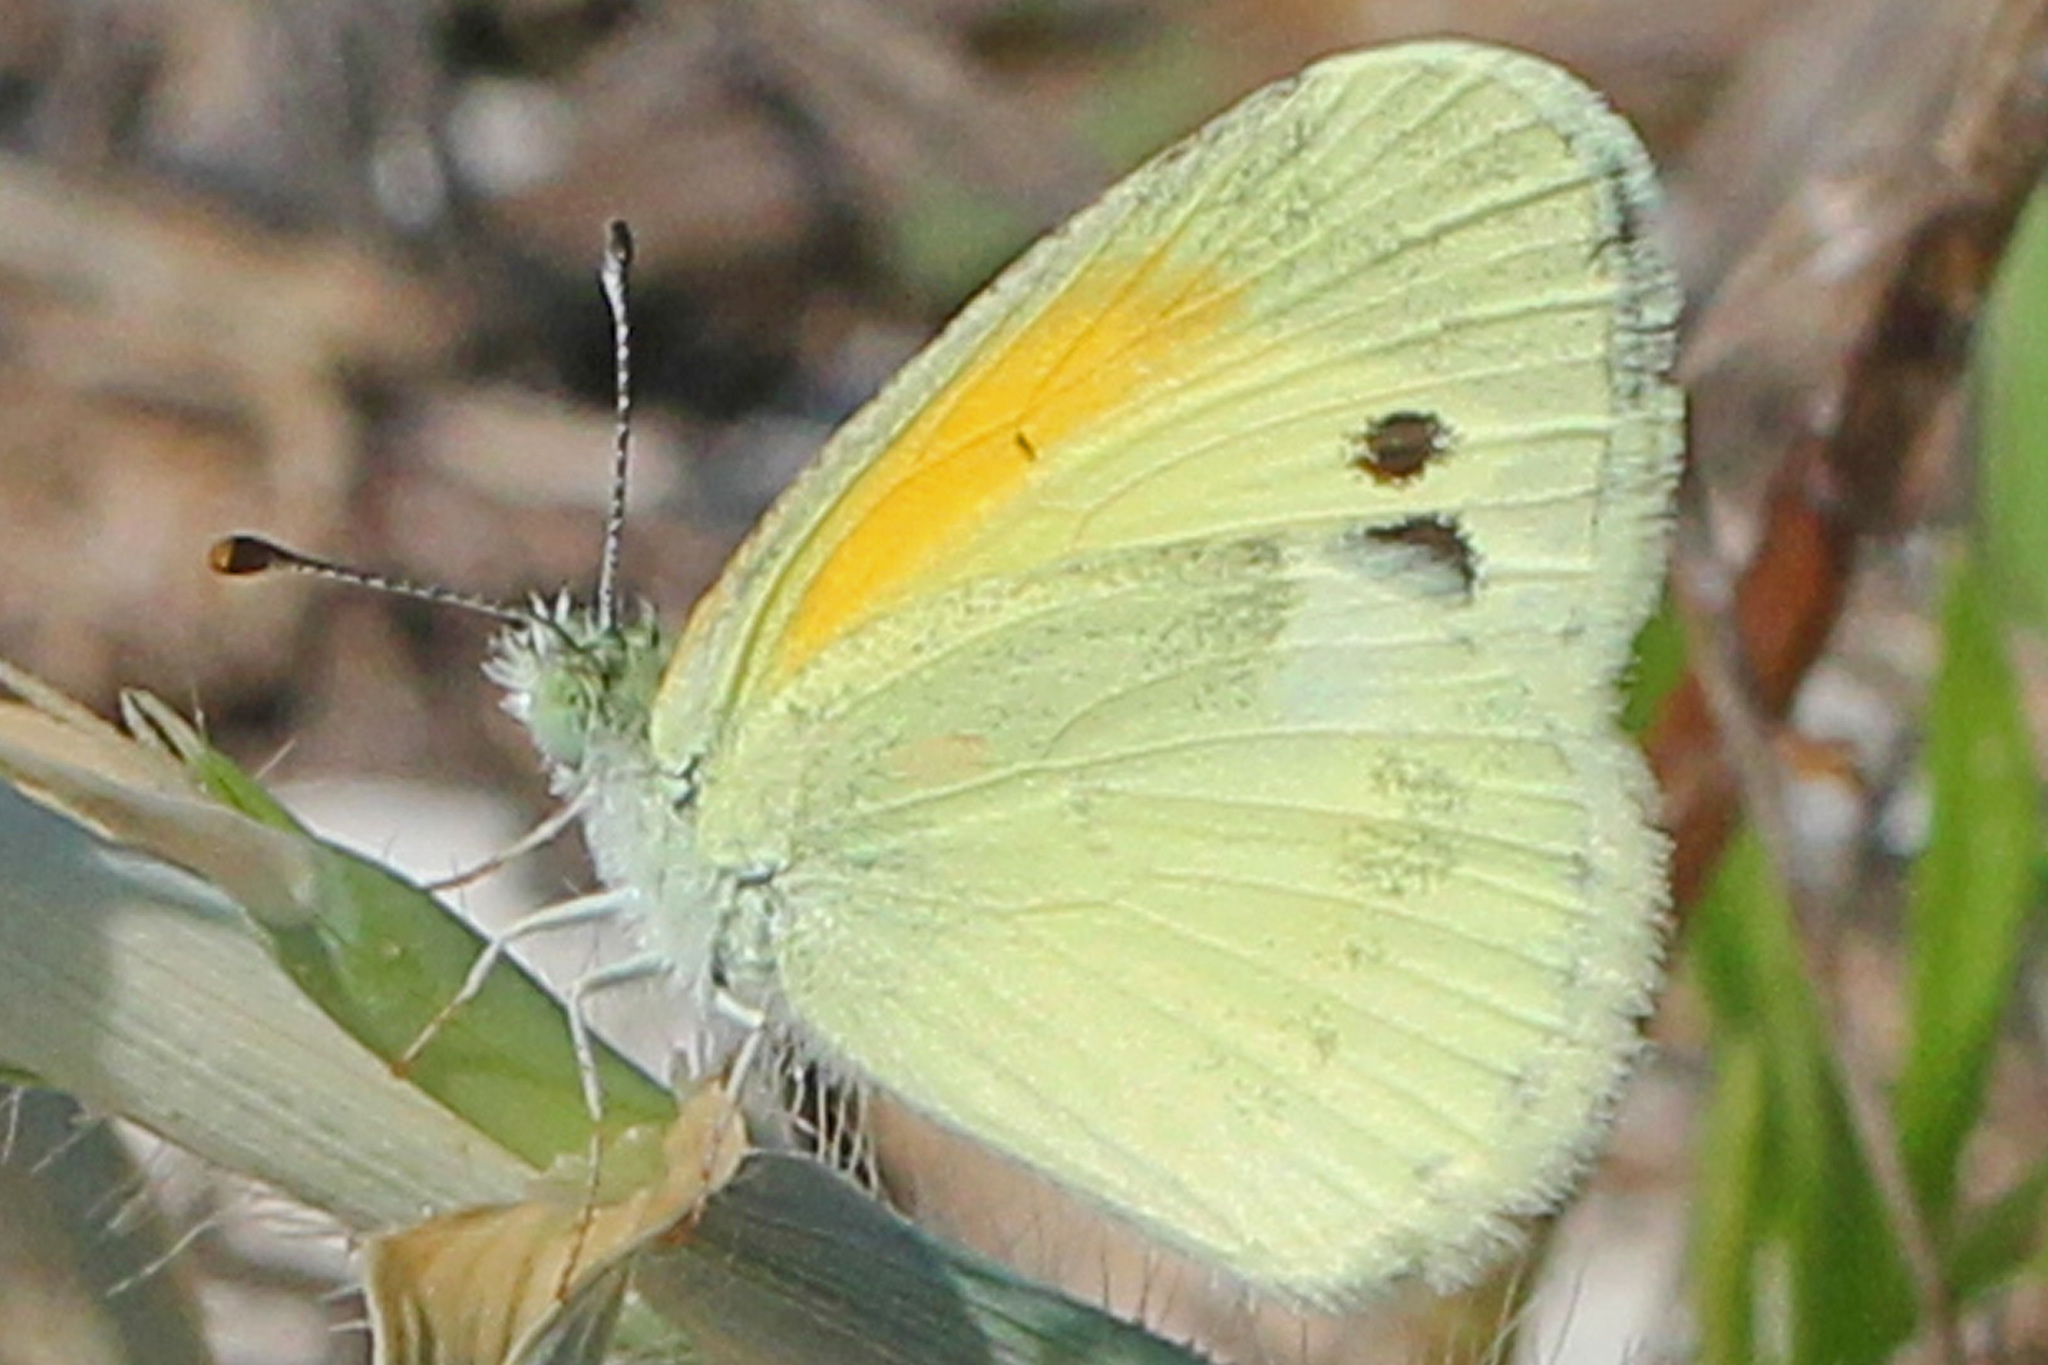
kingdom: Animalia
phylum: Arthropoda
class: Insecta
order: Lepidoptera
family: Pieridae
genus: Nathalis
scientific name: Nathalis iole
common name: Dainty sulphur
